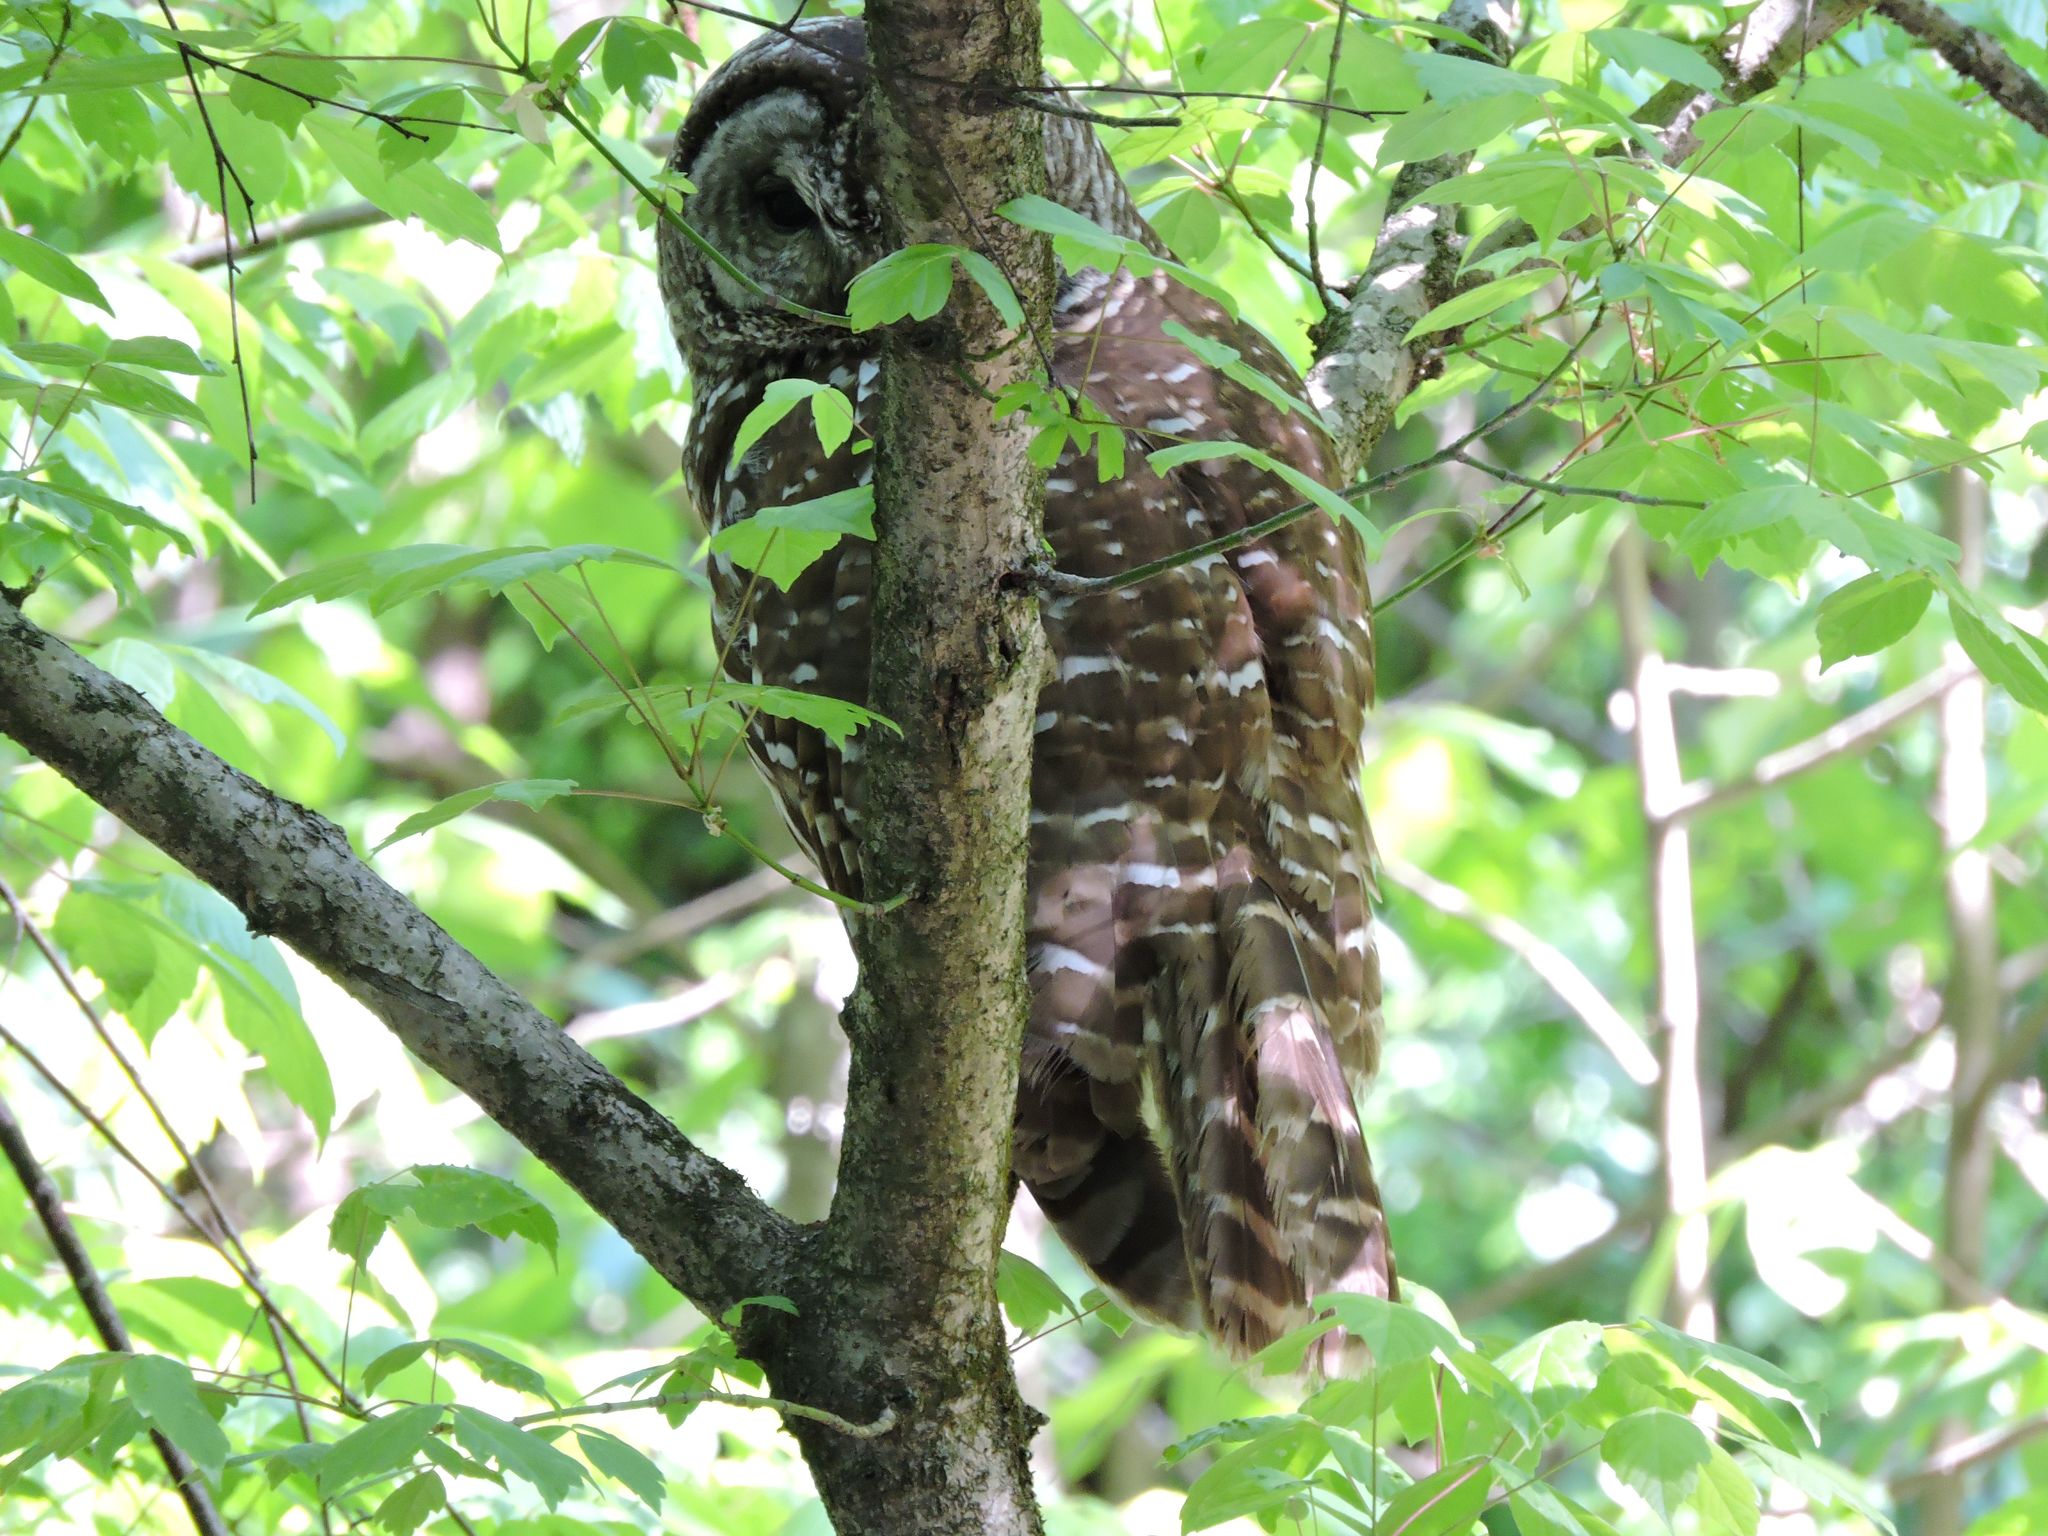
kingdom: Animalia
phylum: Chordata
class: Aves
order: Strigiformes
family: Strigidae
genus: Strix
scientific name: Strix varia
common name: Barred owl
